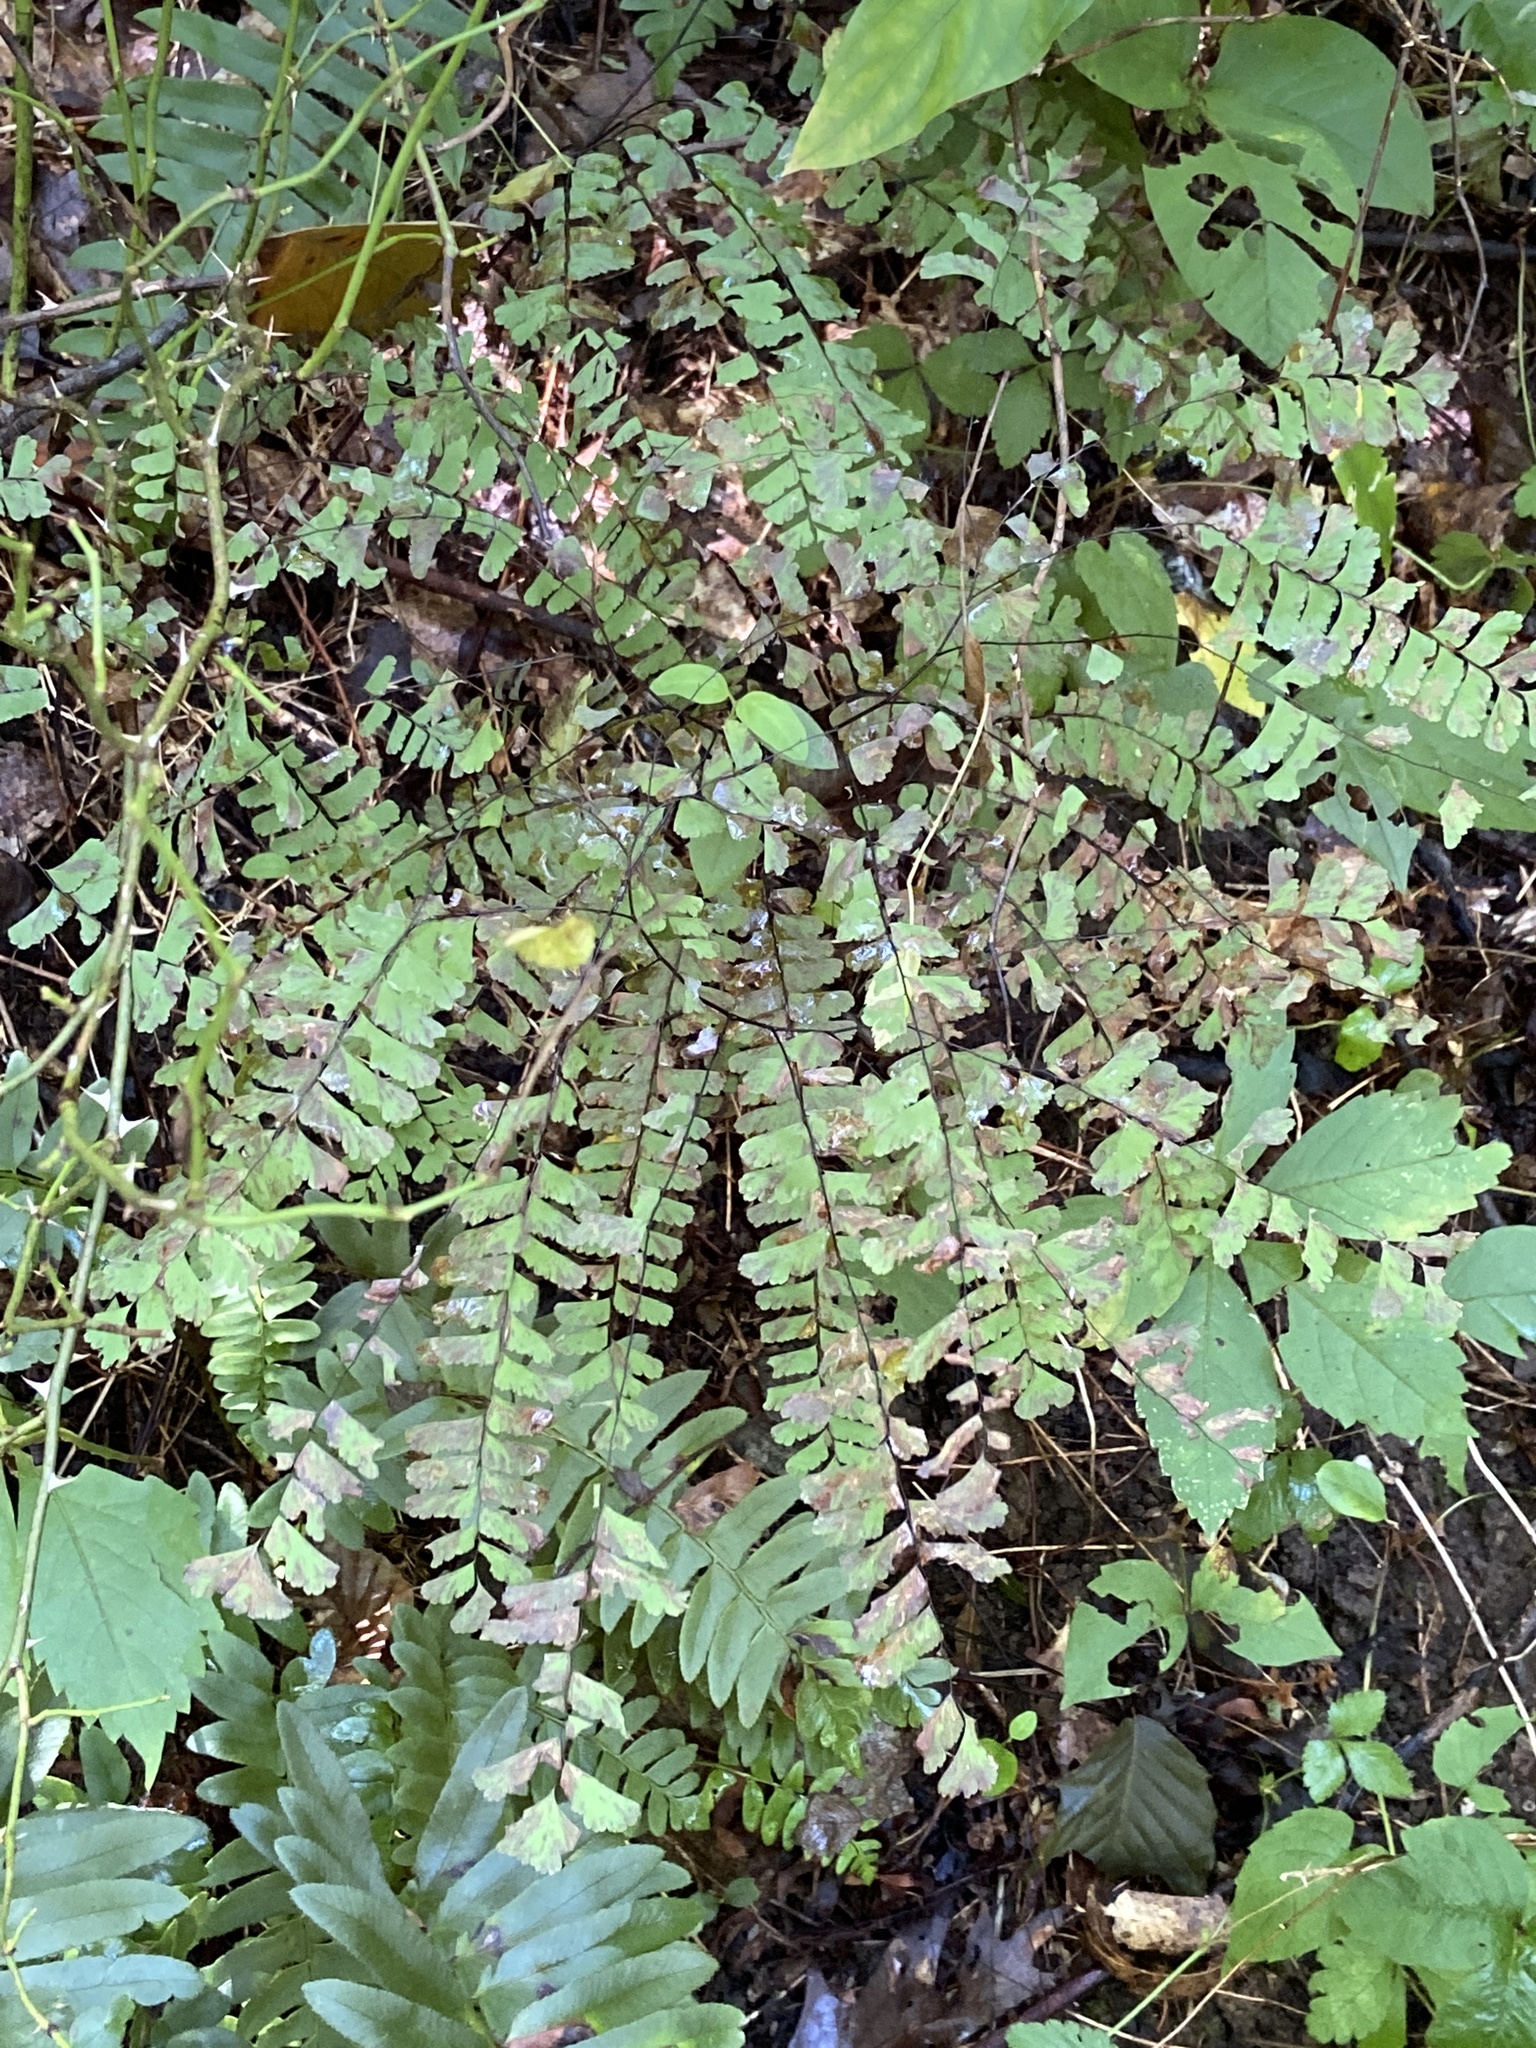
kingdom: Plantae
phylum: Tracheophyta
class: Polypodiopsida
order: Polypodiales
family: Pteridaceae
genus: Adiantum
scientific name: Adiantum pedatum
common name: Five-finger fern
